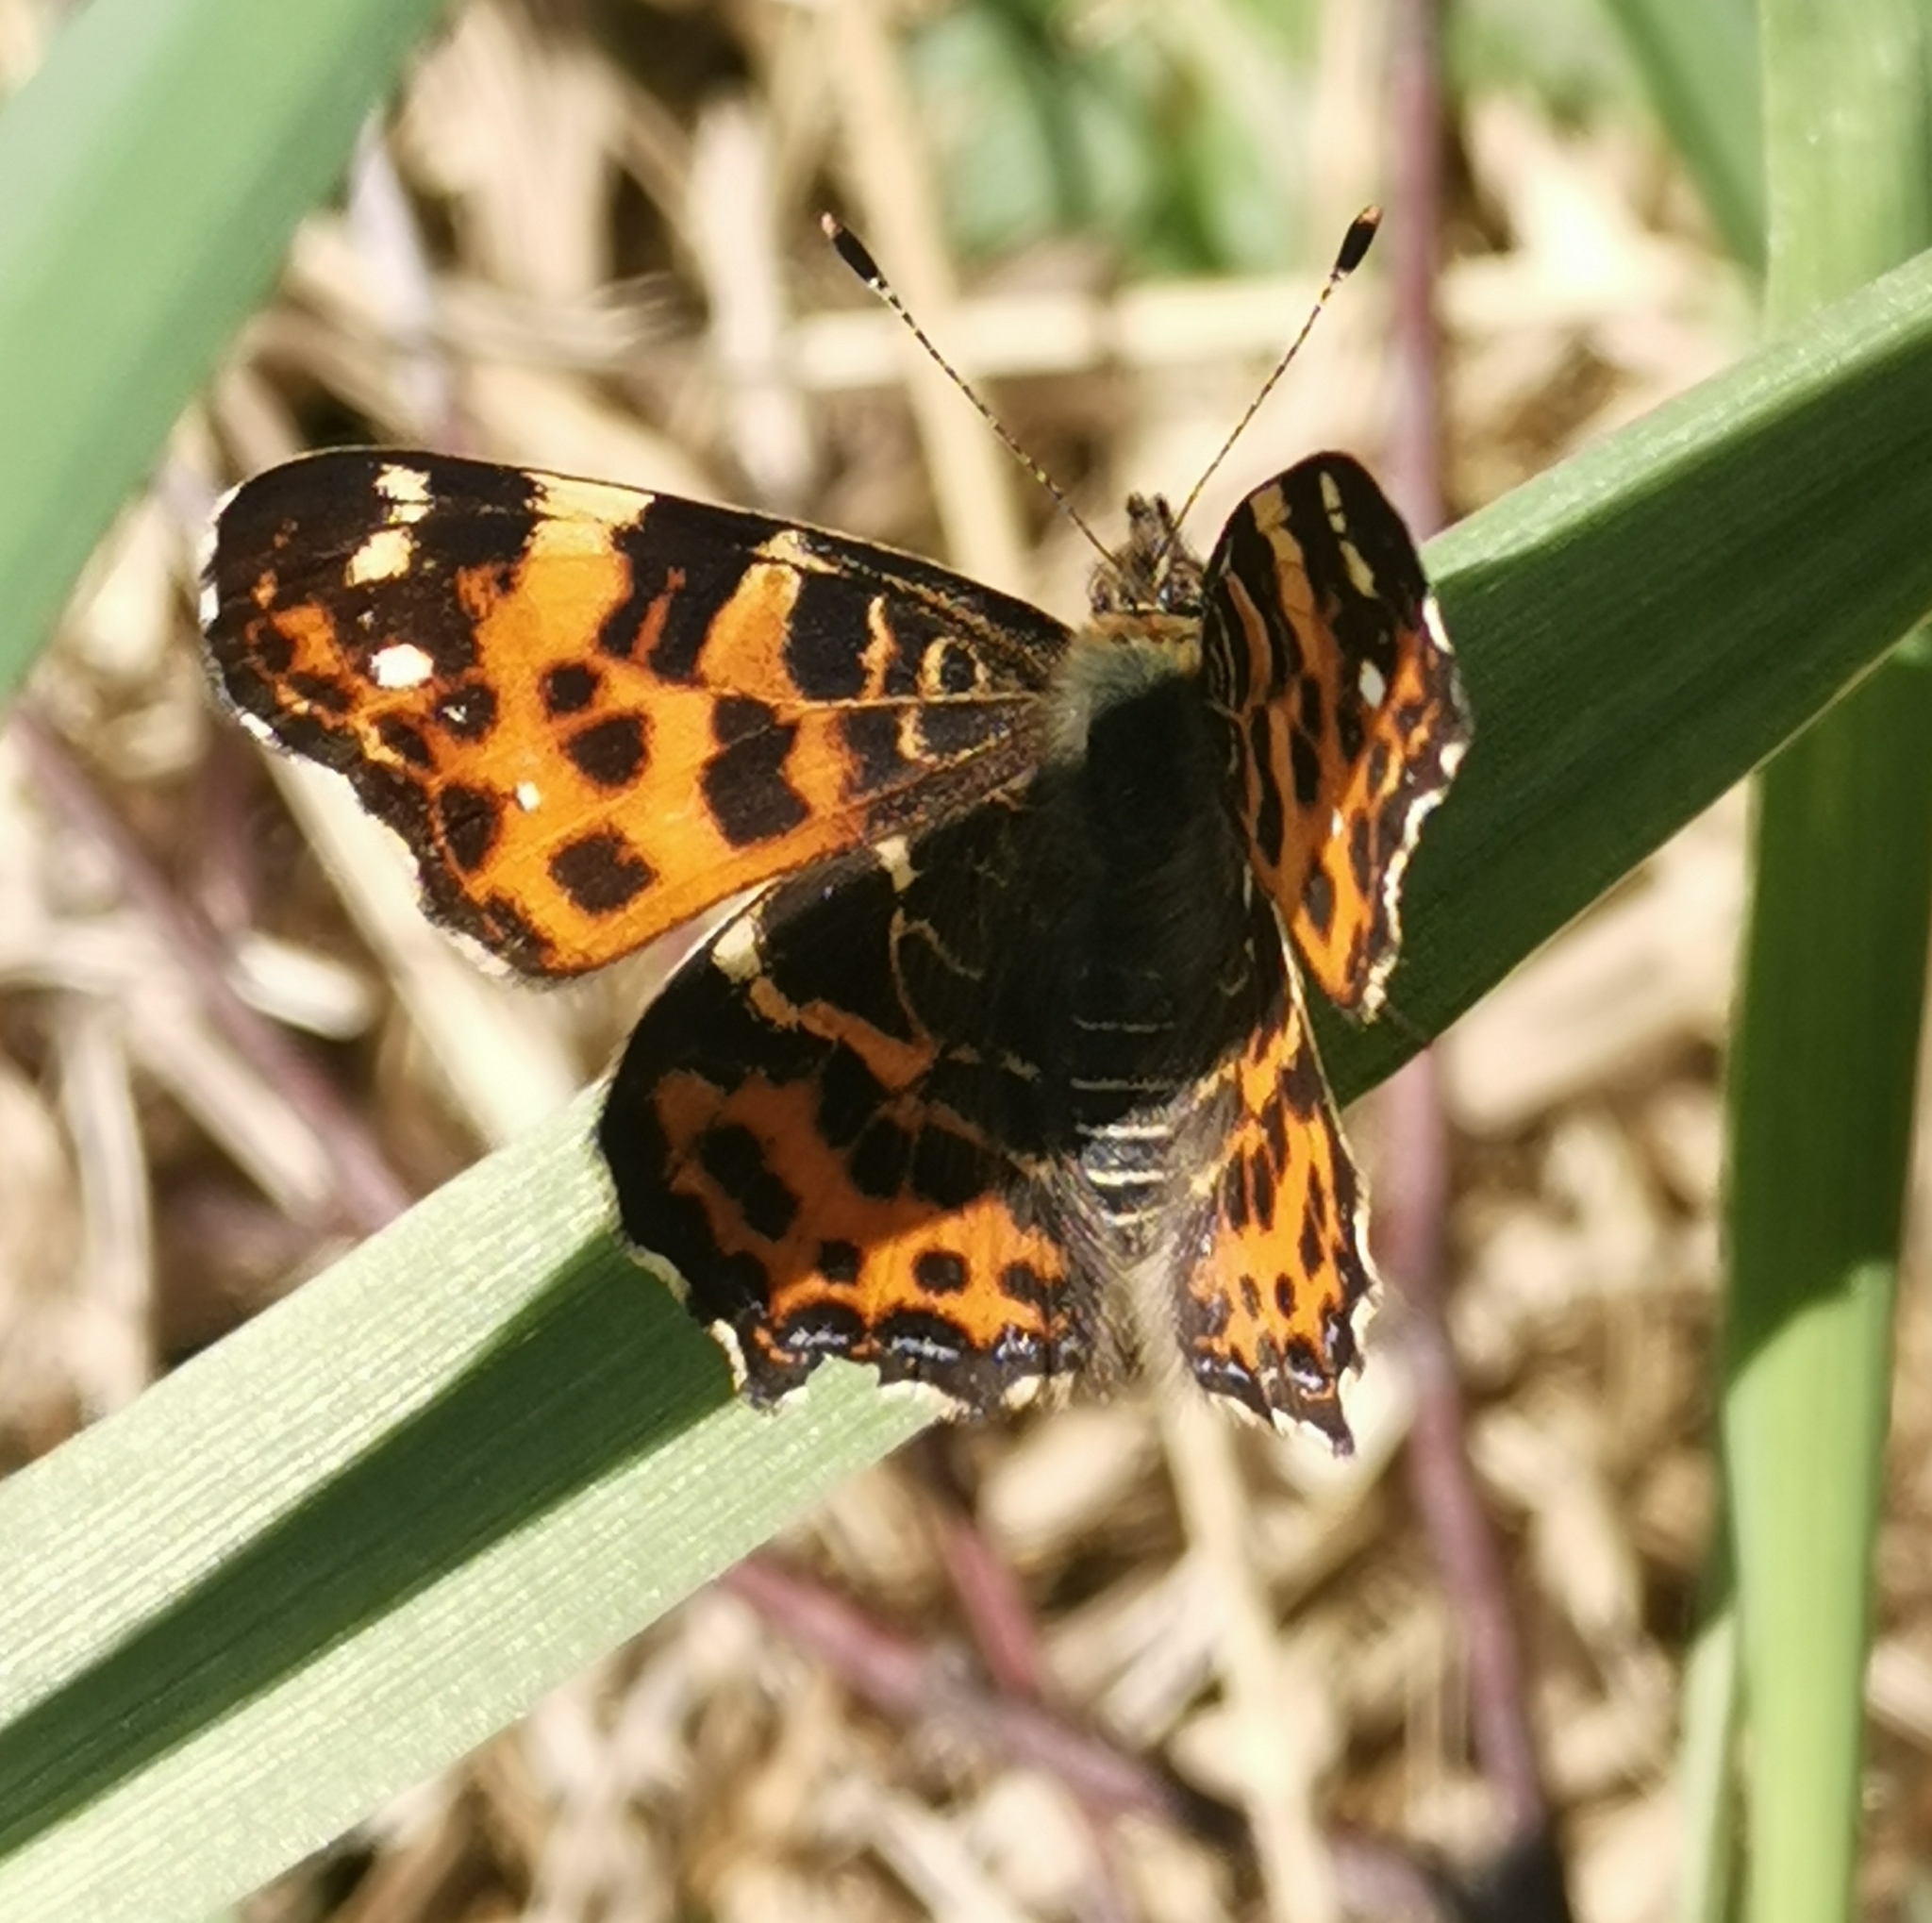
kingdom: Animalia
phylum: Arthropoda
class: Insecta
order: Lepidoptera
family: Nymphalidae
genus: Araschnia
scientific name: Araschnia levana
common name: Map butterfly
